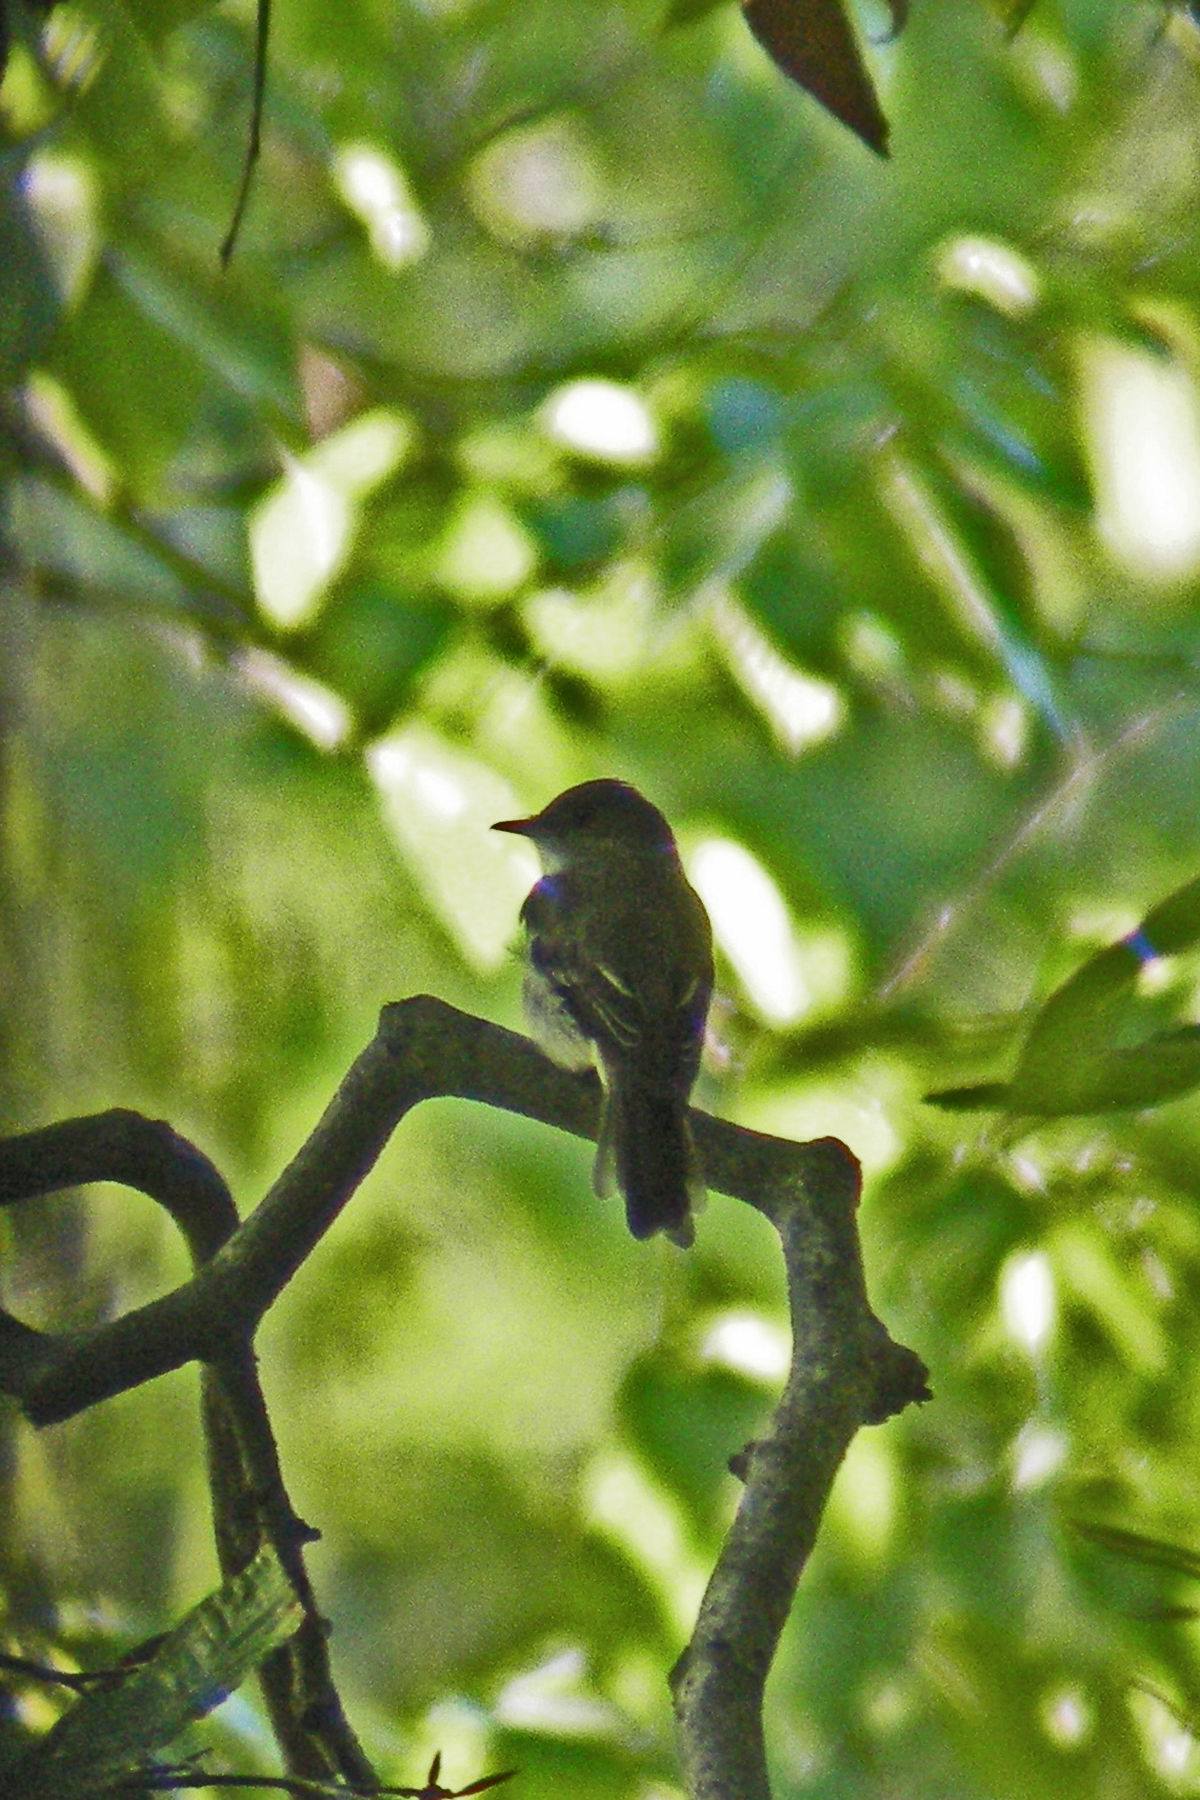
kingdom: Animalia
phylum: Chordata
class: Aves
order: Passeriformes
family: Tyrannidae
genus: Empidonax
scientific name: Empidonax virescens
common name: Acadian flycatcher
